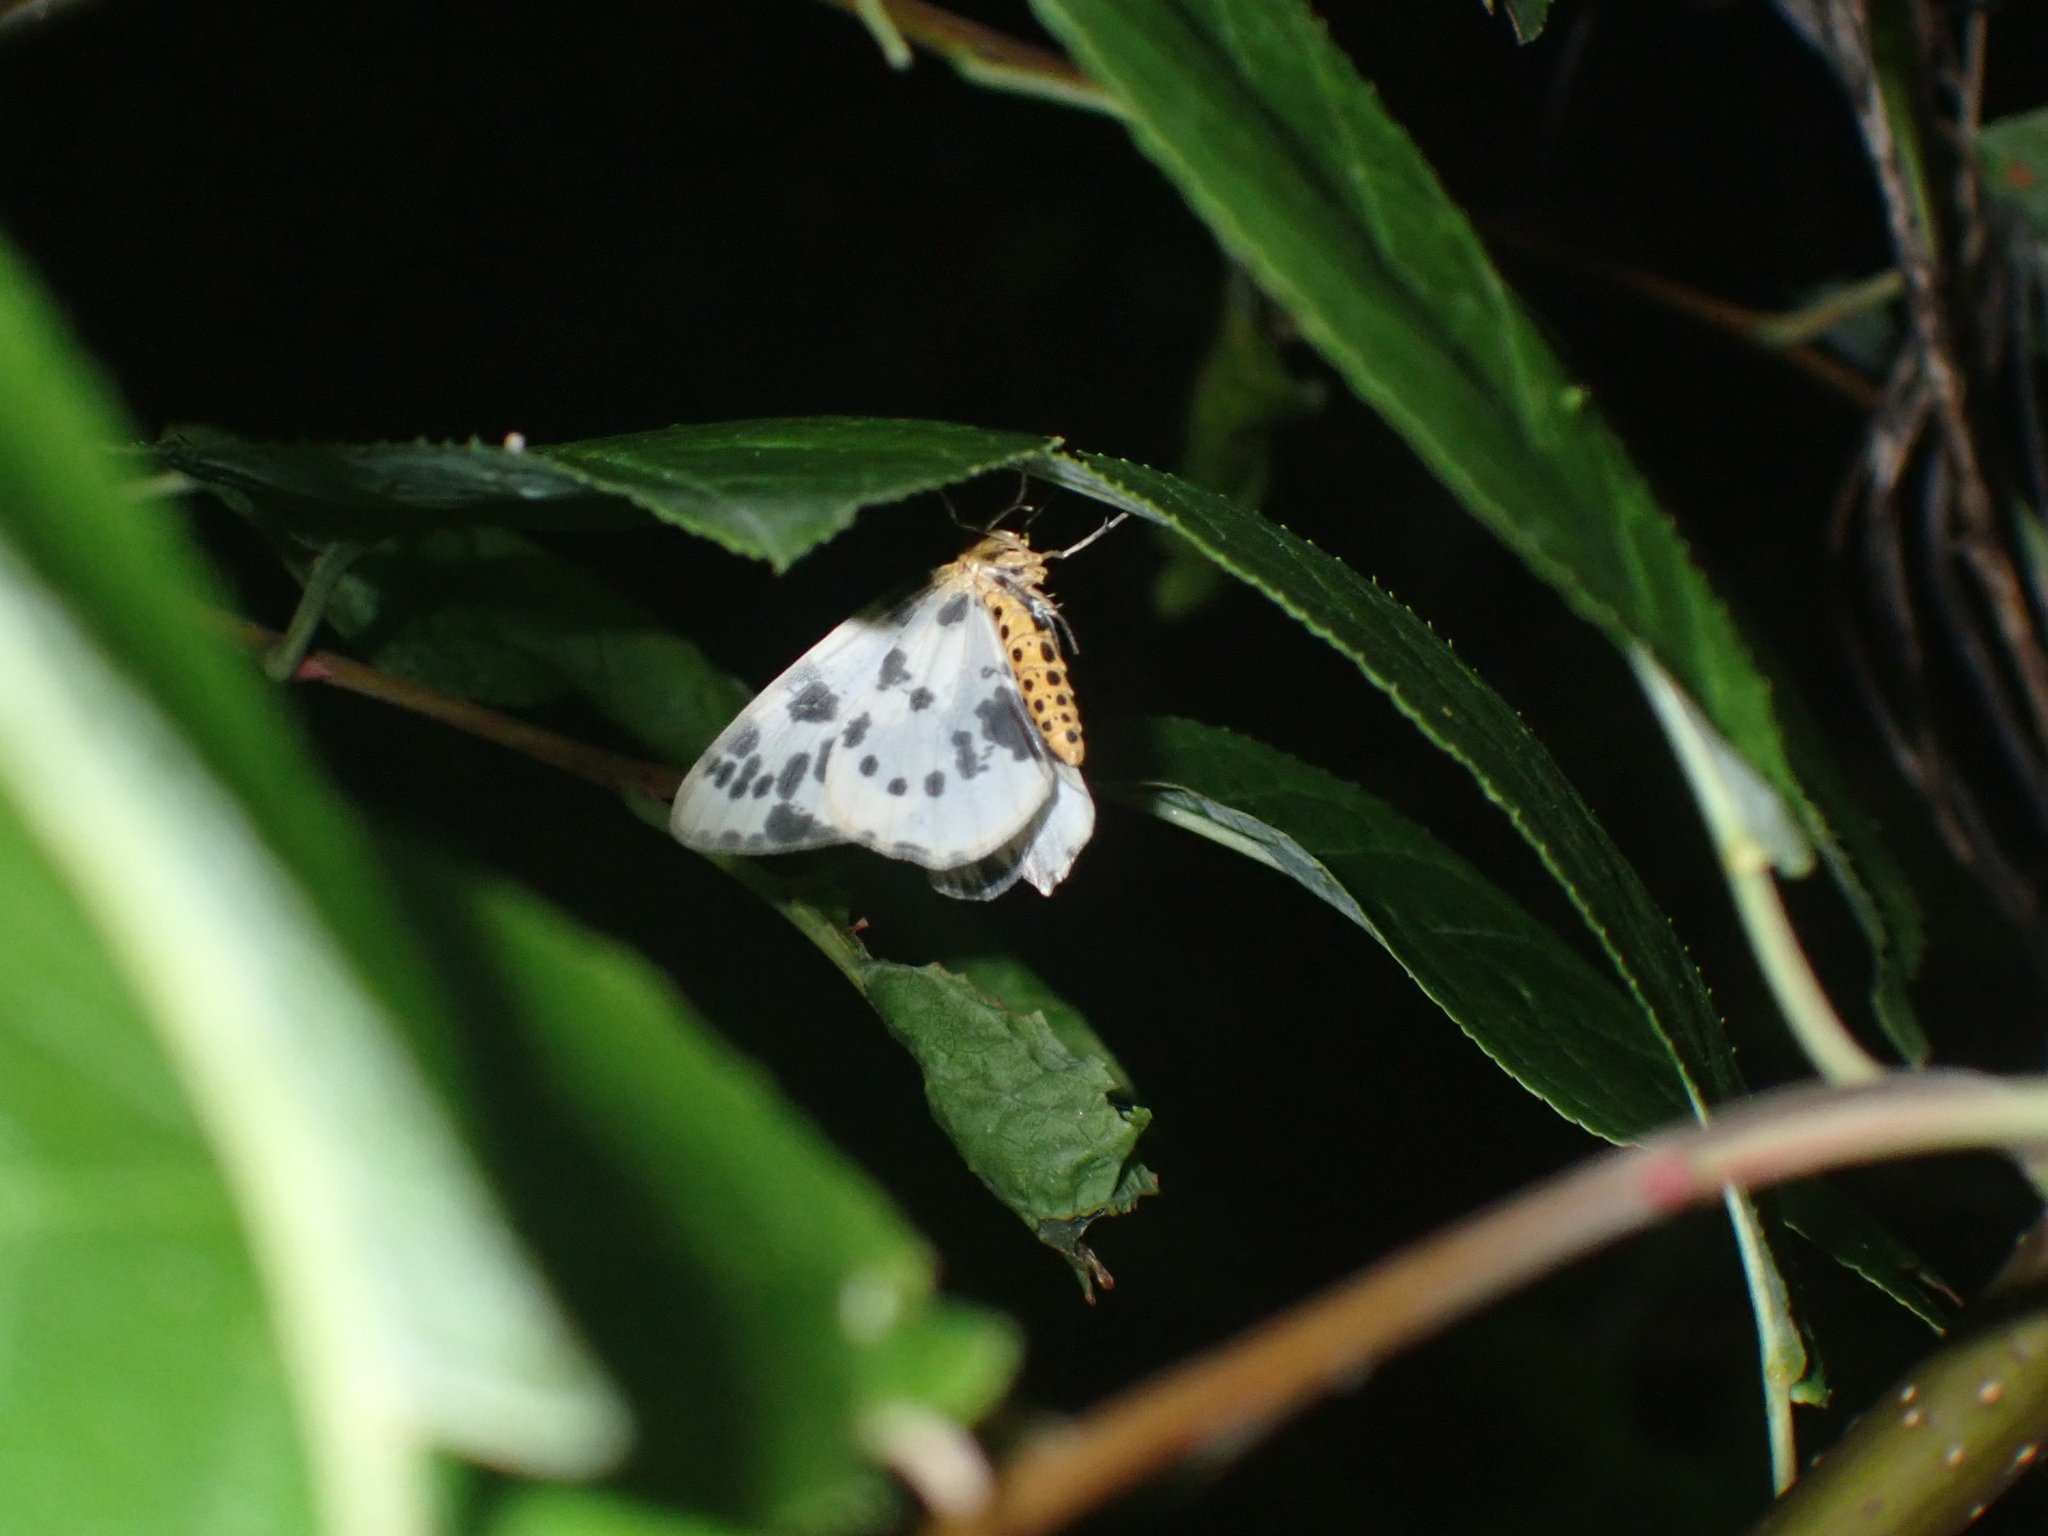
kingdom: Animalia
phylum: Arthropoda
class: Insecta
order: Lepidoptera
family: Geometridae
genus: Abraxas
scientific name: Abraxas sylvata
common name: Clouded magpie
